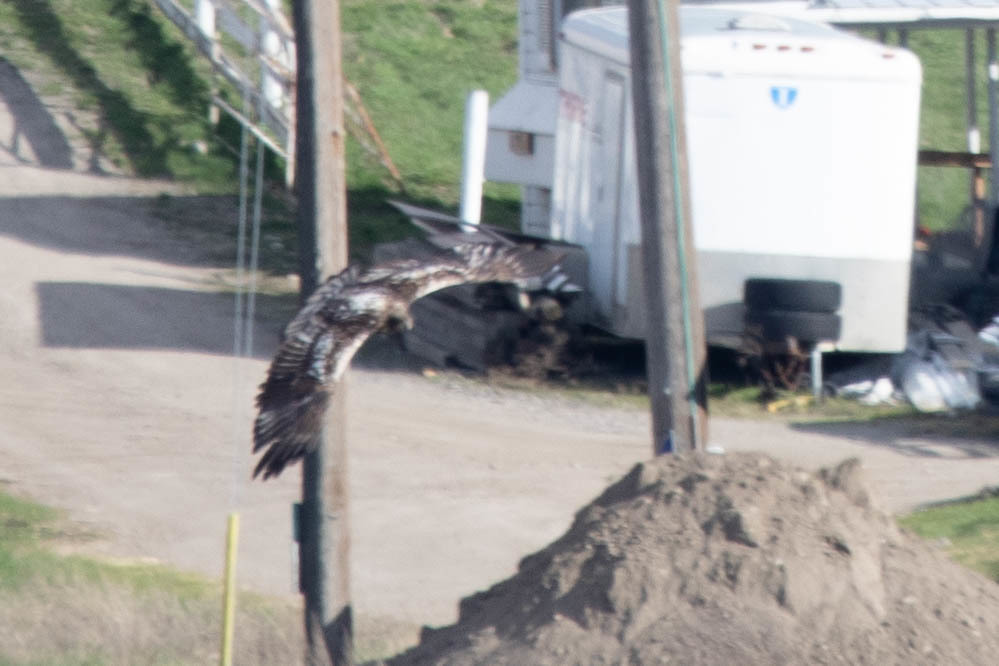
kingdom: Animalia
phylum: Chordata
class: Aves
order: Accipitriformes
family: Accipitridae
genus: Haliaeetus
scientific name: Haliaeetus leucocephalus
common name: Bald eagle
